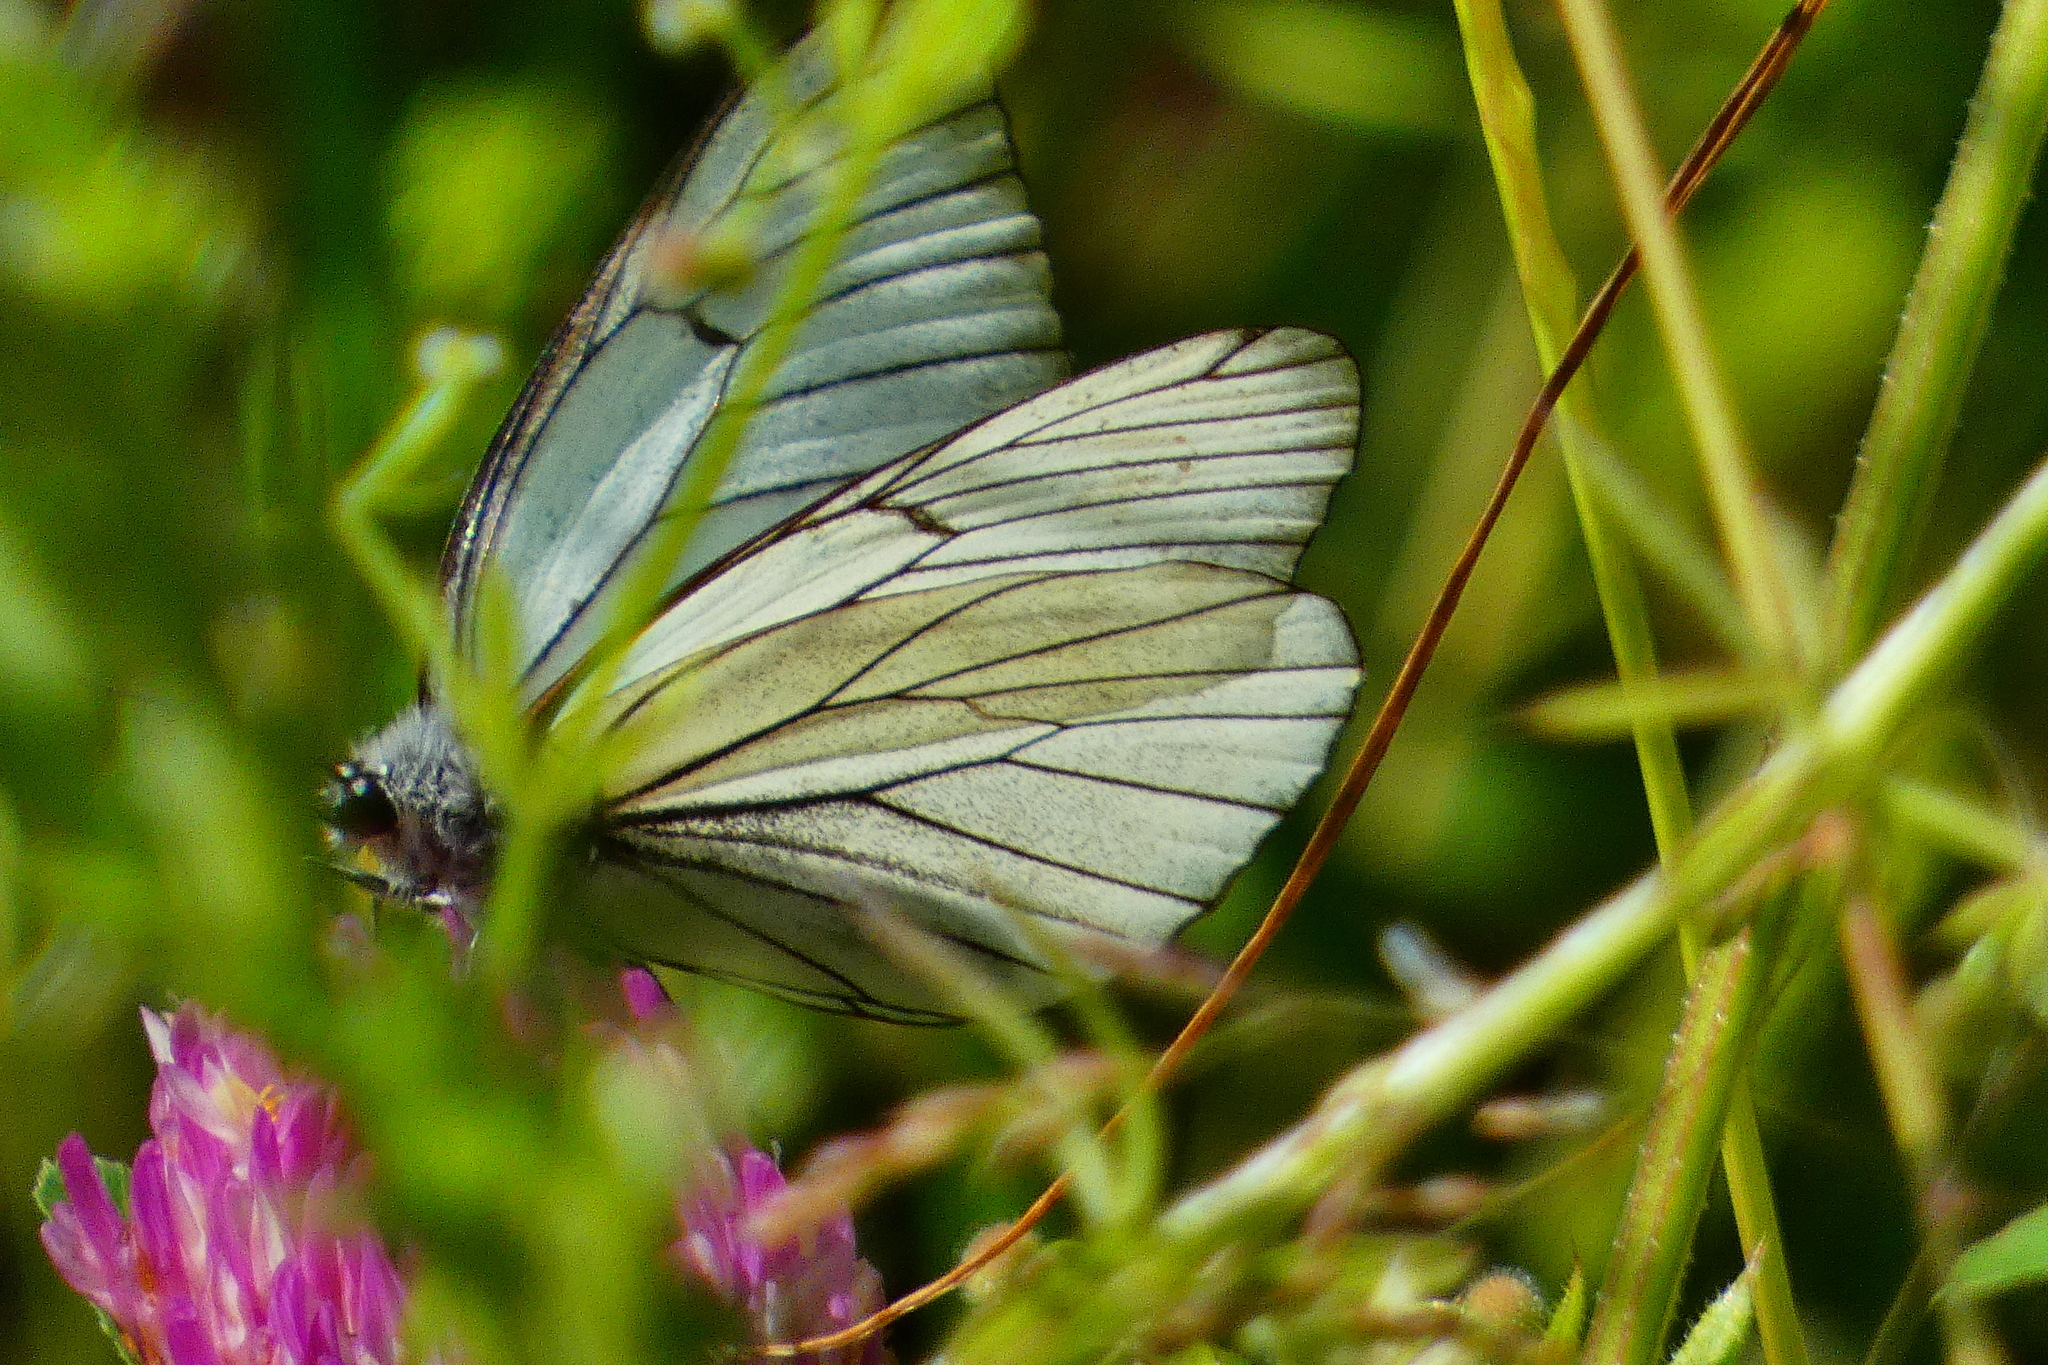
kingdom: Animalia
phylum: Arthropoda
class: Insecta
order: Lepidoptera
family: Pieridae
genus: Aporia
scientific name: Aporia crataegi
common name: Black-veined white
